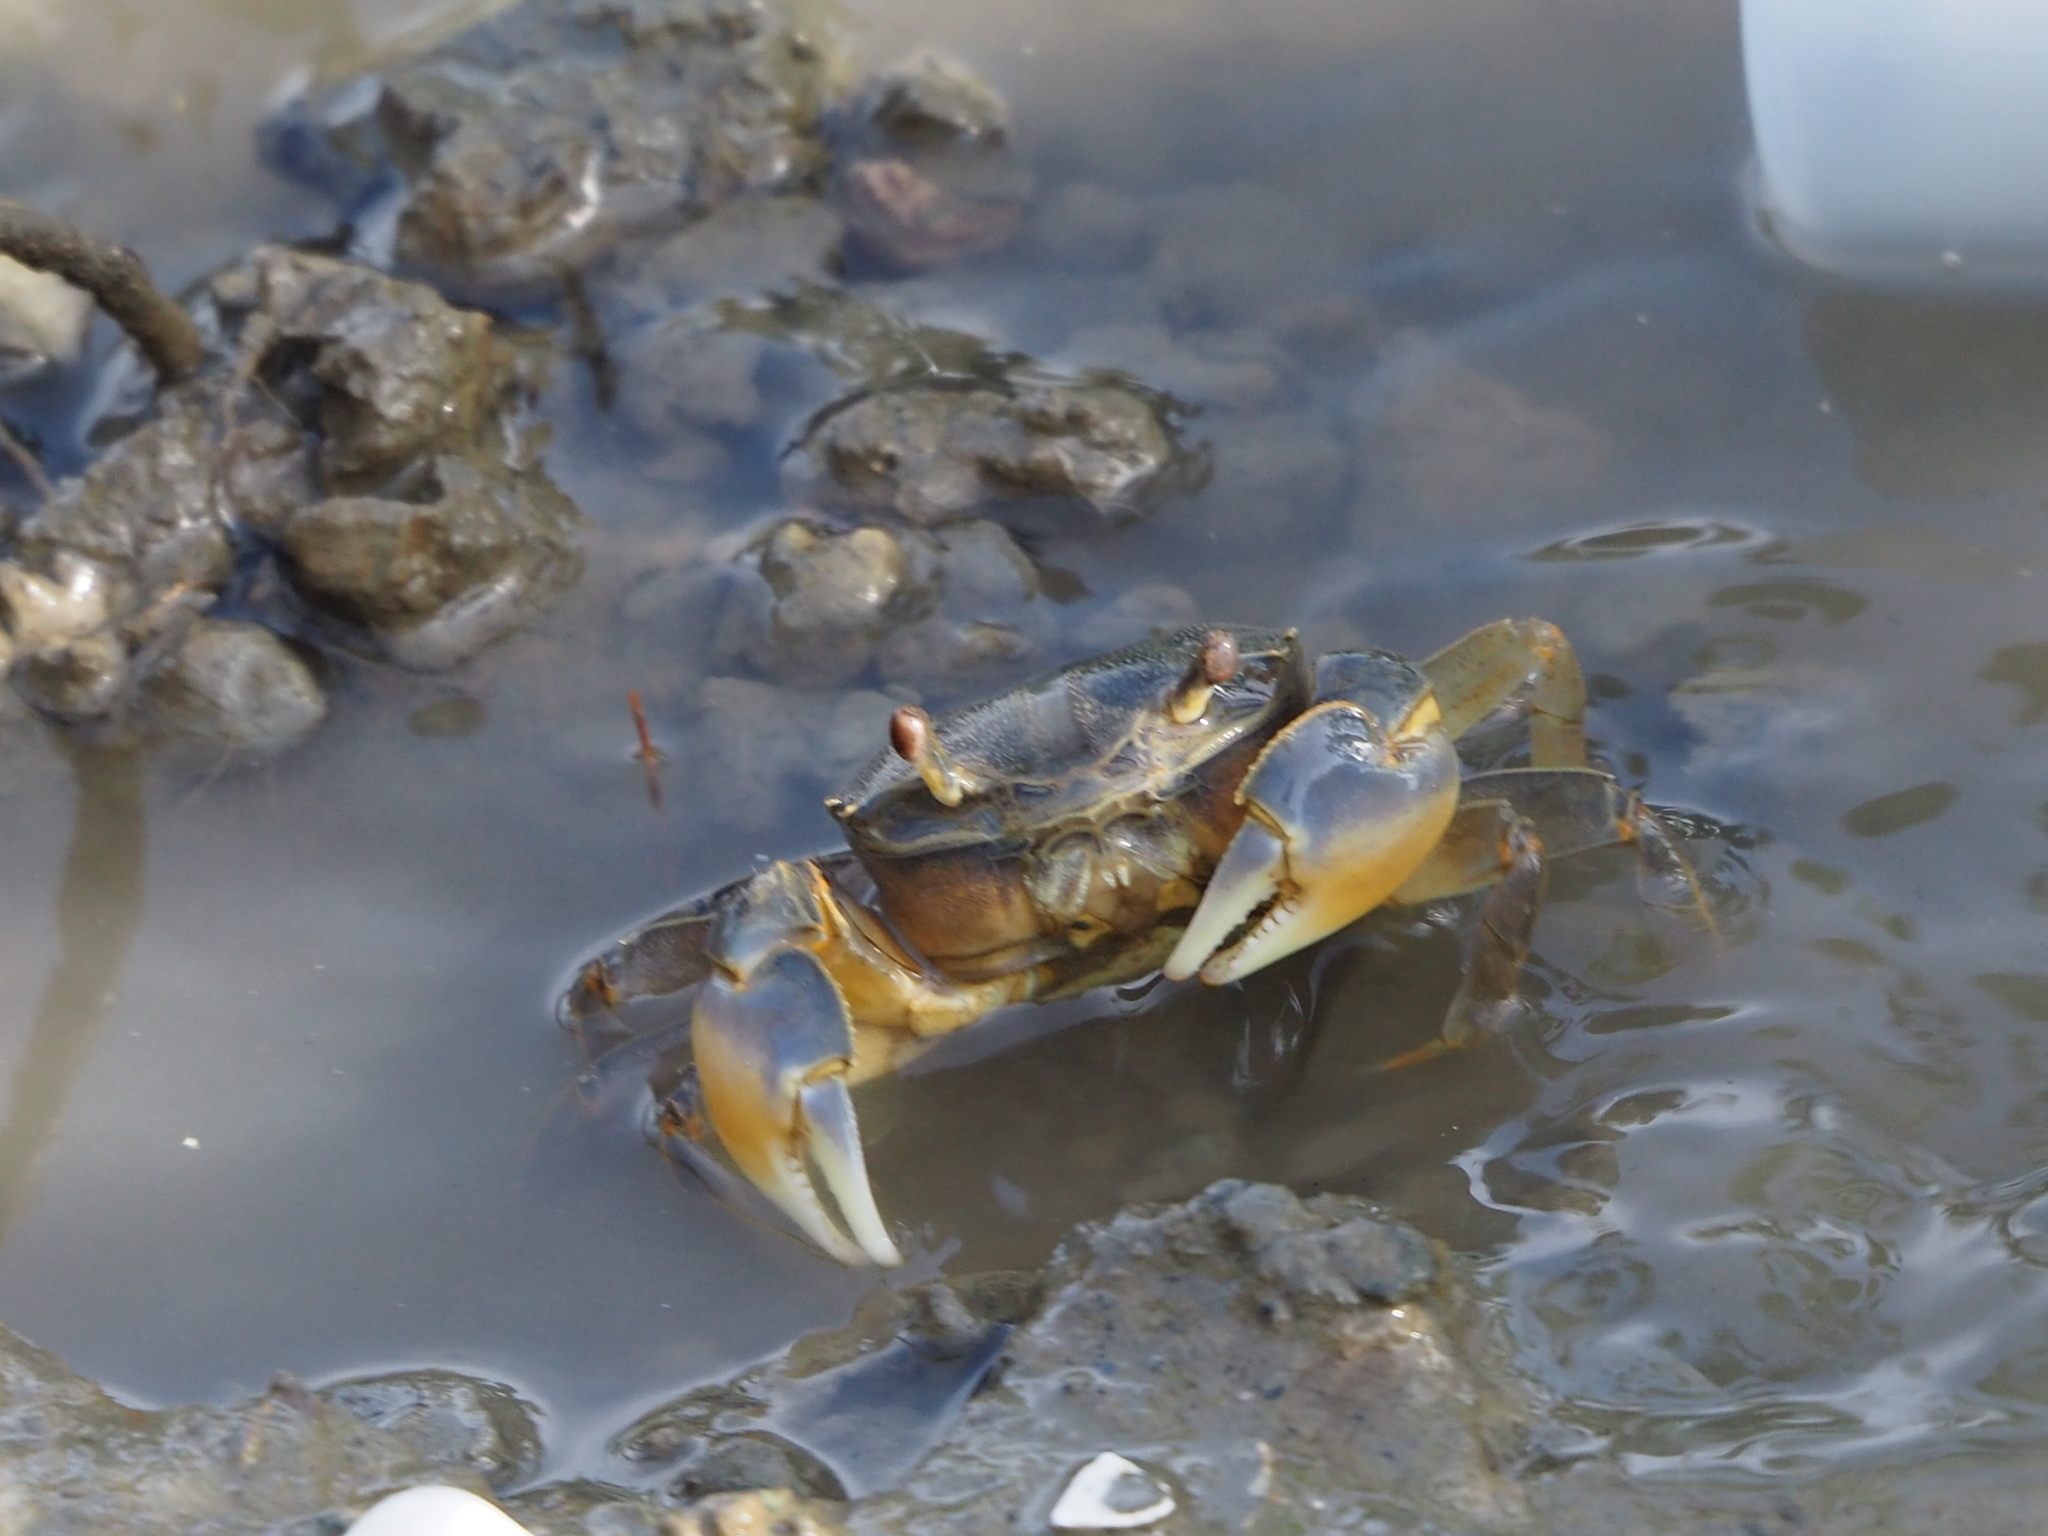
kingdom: Animalia
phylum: Arthropoda
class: Malacostraca
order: Decapoda
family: Varunidae
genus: Helice
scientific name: Helice formosensis
